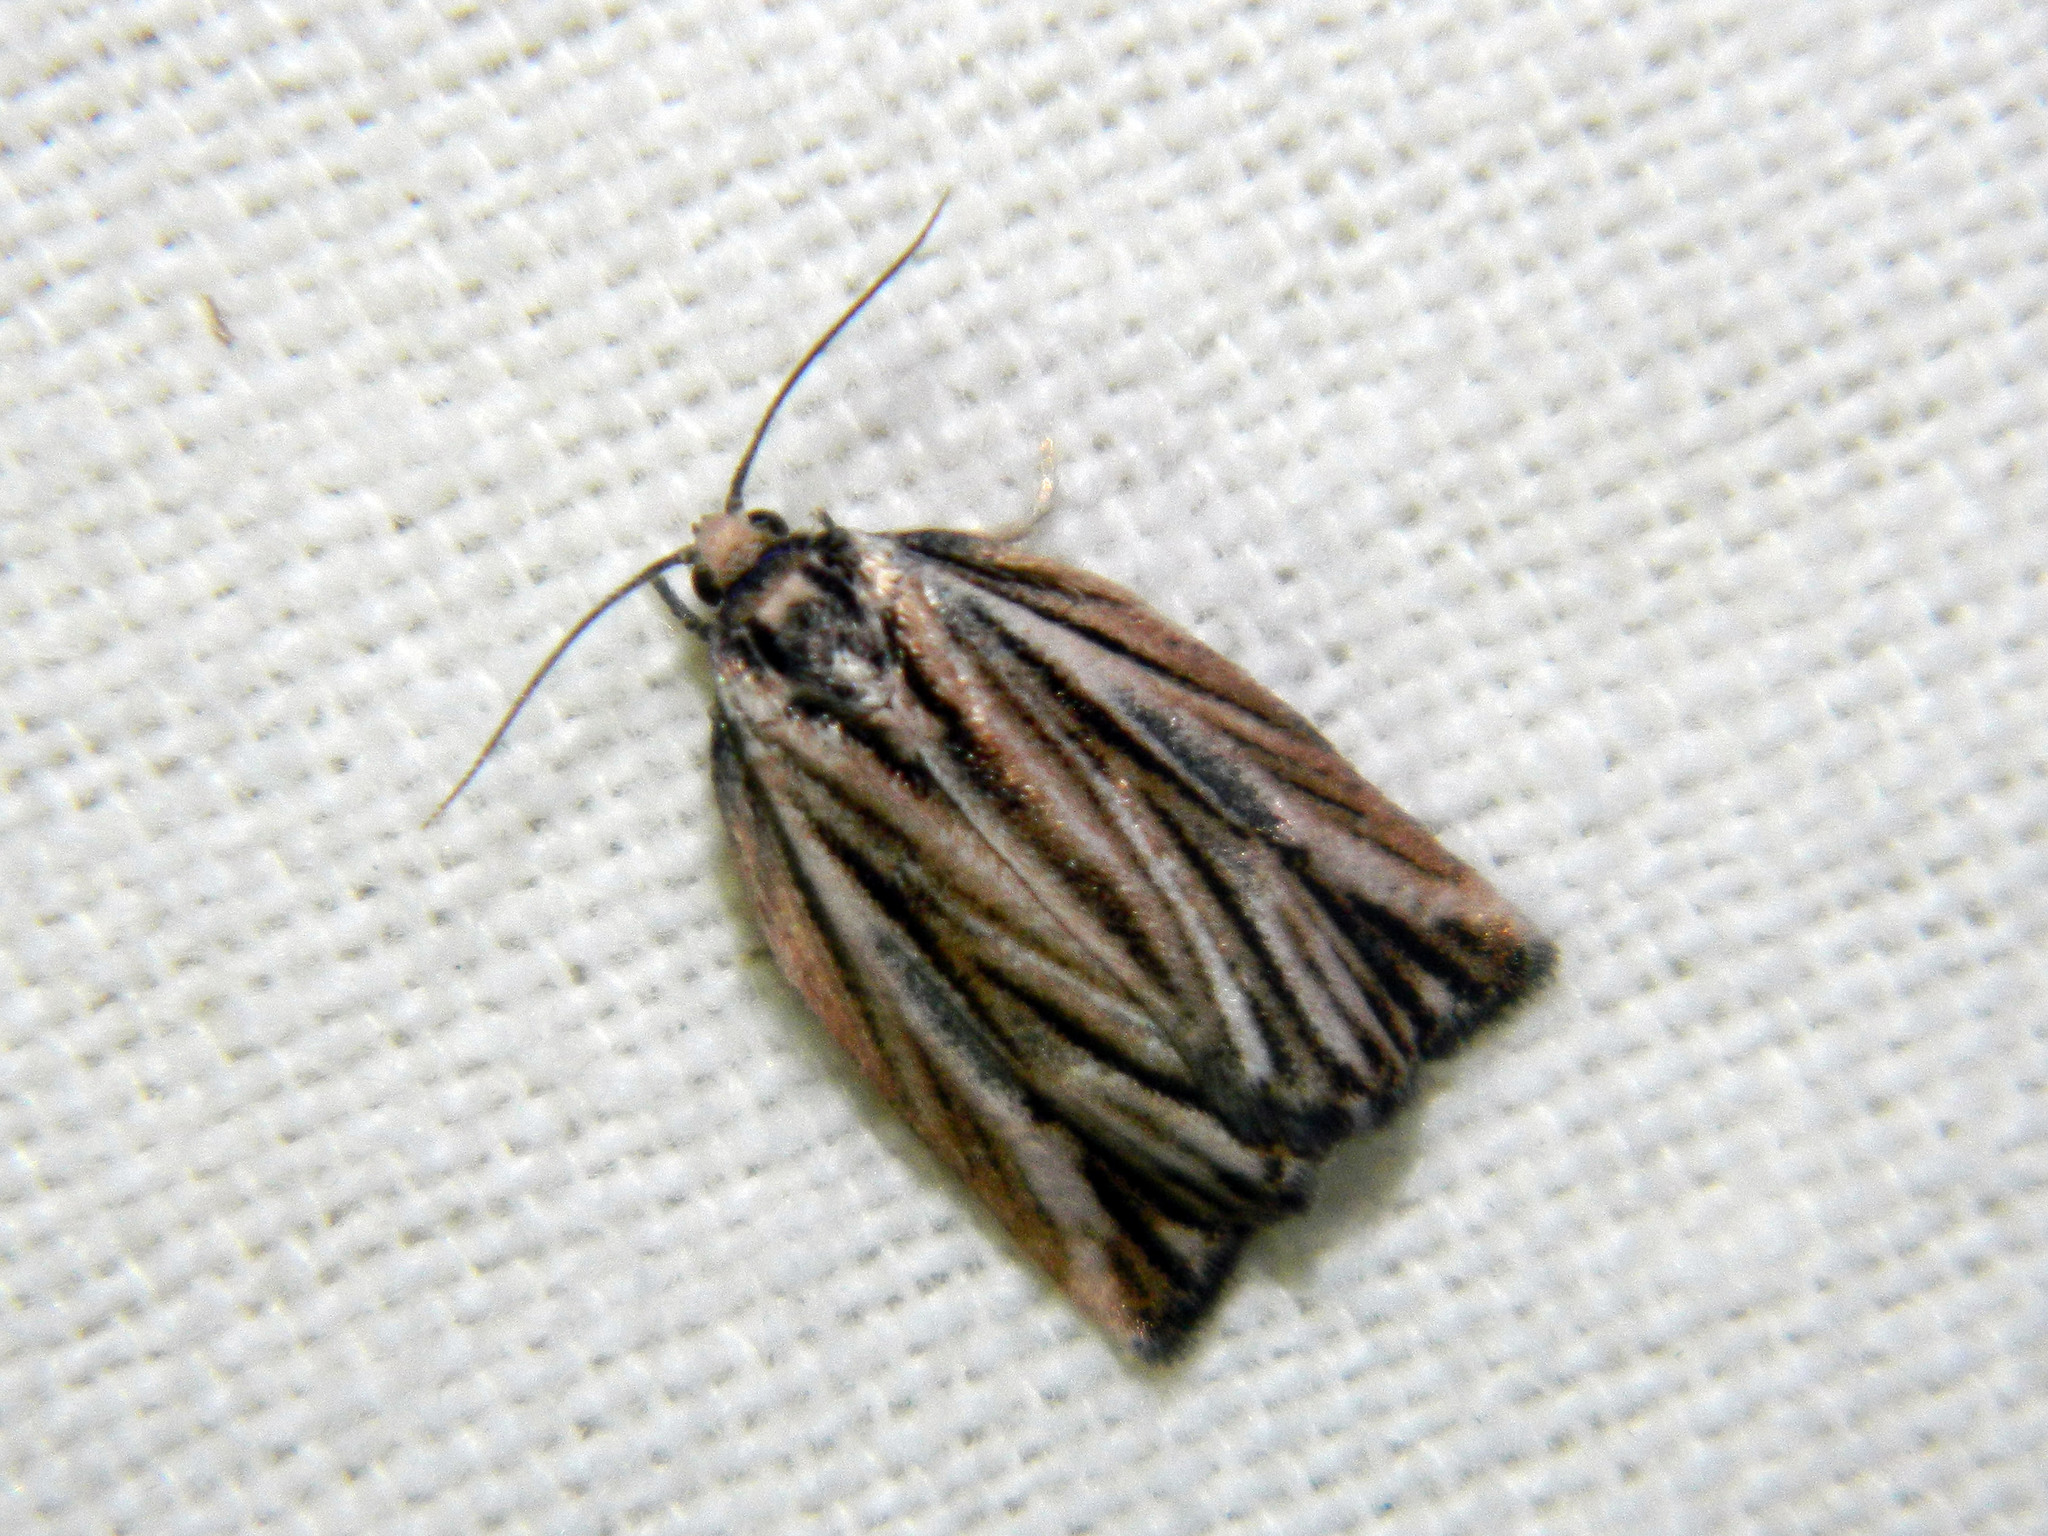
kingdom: Animalia
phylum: Arthropoda
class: Insecta
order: Lepidoptera
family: Tortricidae
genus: Archips
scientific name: Archips strianus
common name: Striated tortrix moth
